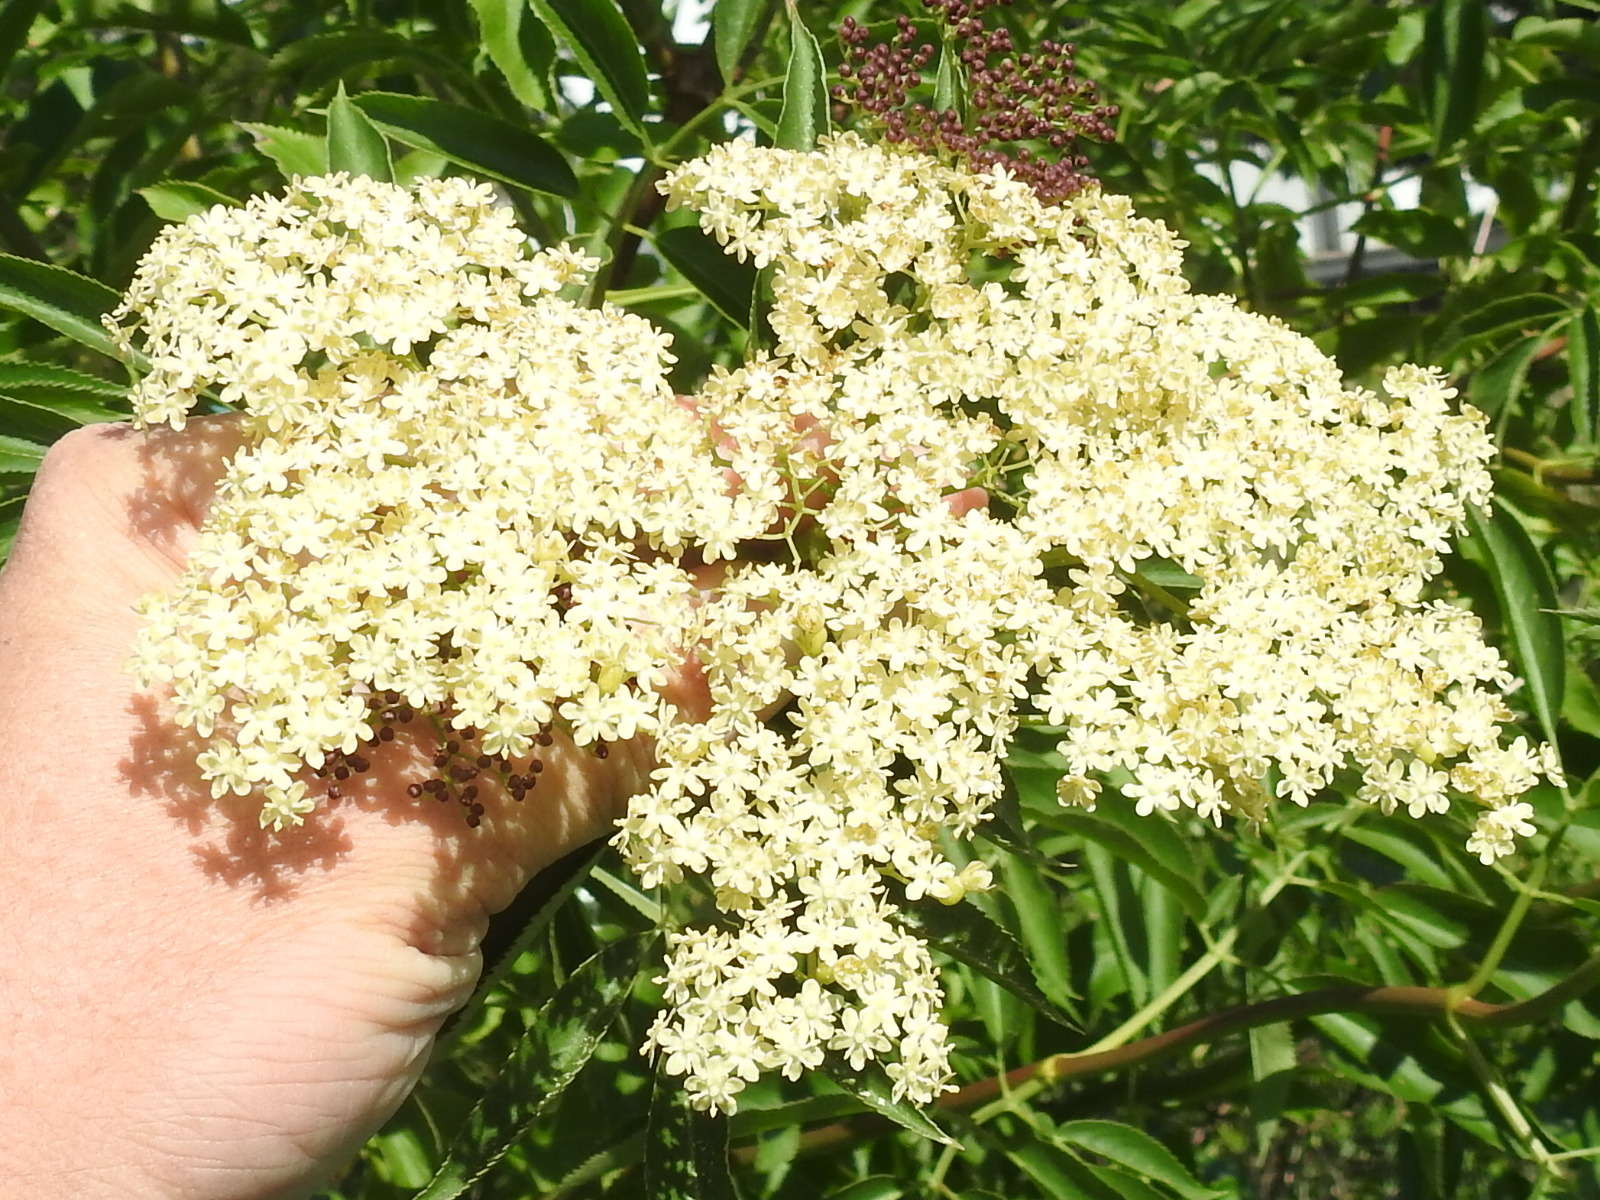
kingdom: Plantae
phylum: Tracheophyta
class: Magnoliopsida
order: Dipsacales
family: Viburnaceae
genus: Sambucus
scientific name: Sambucus cerulea
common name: Blue elder
